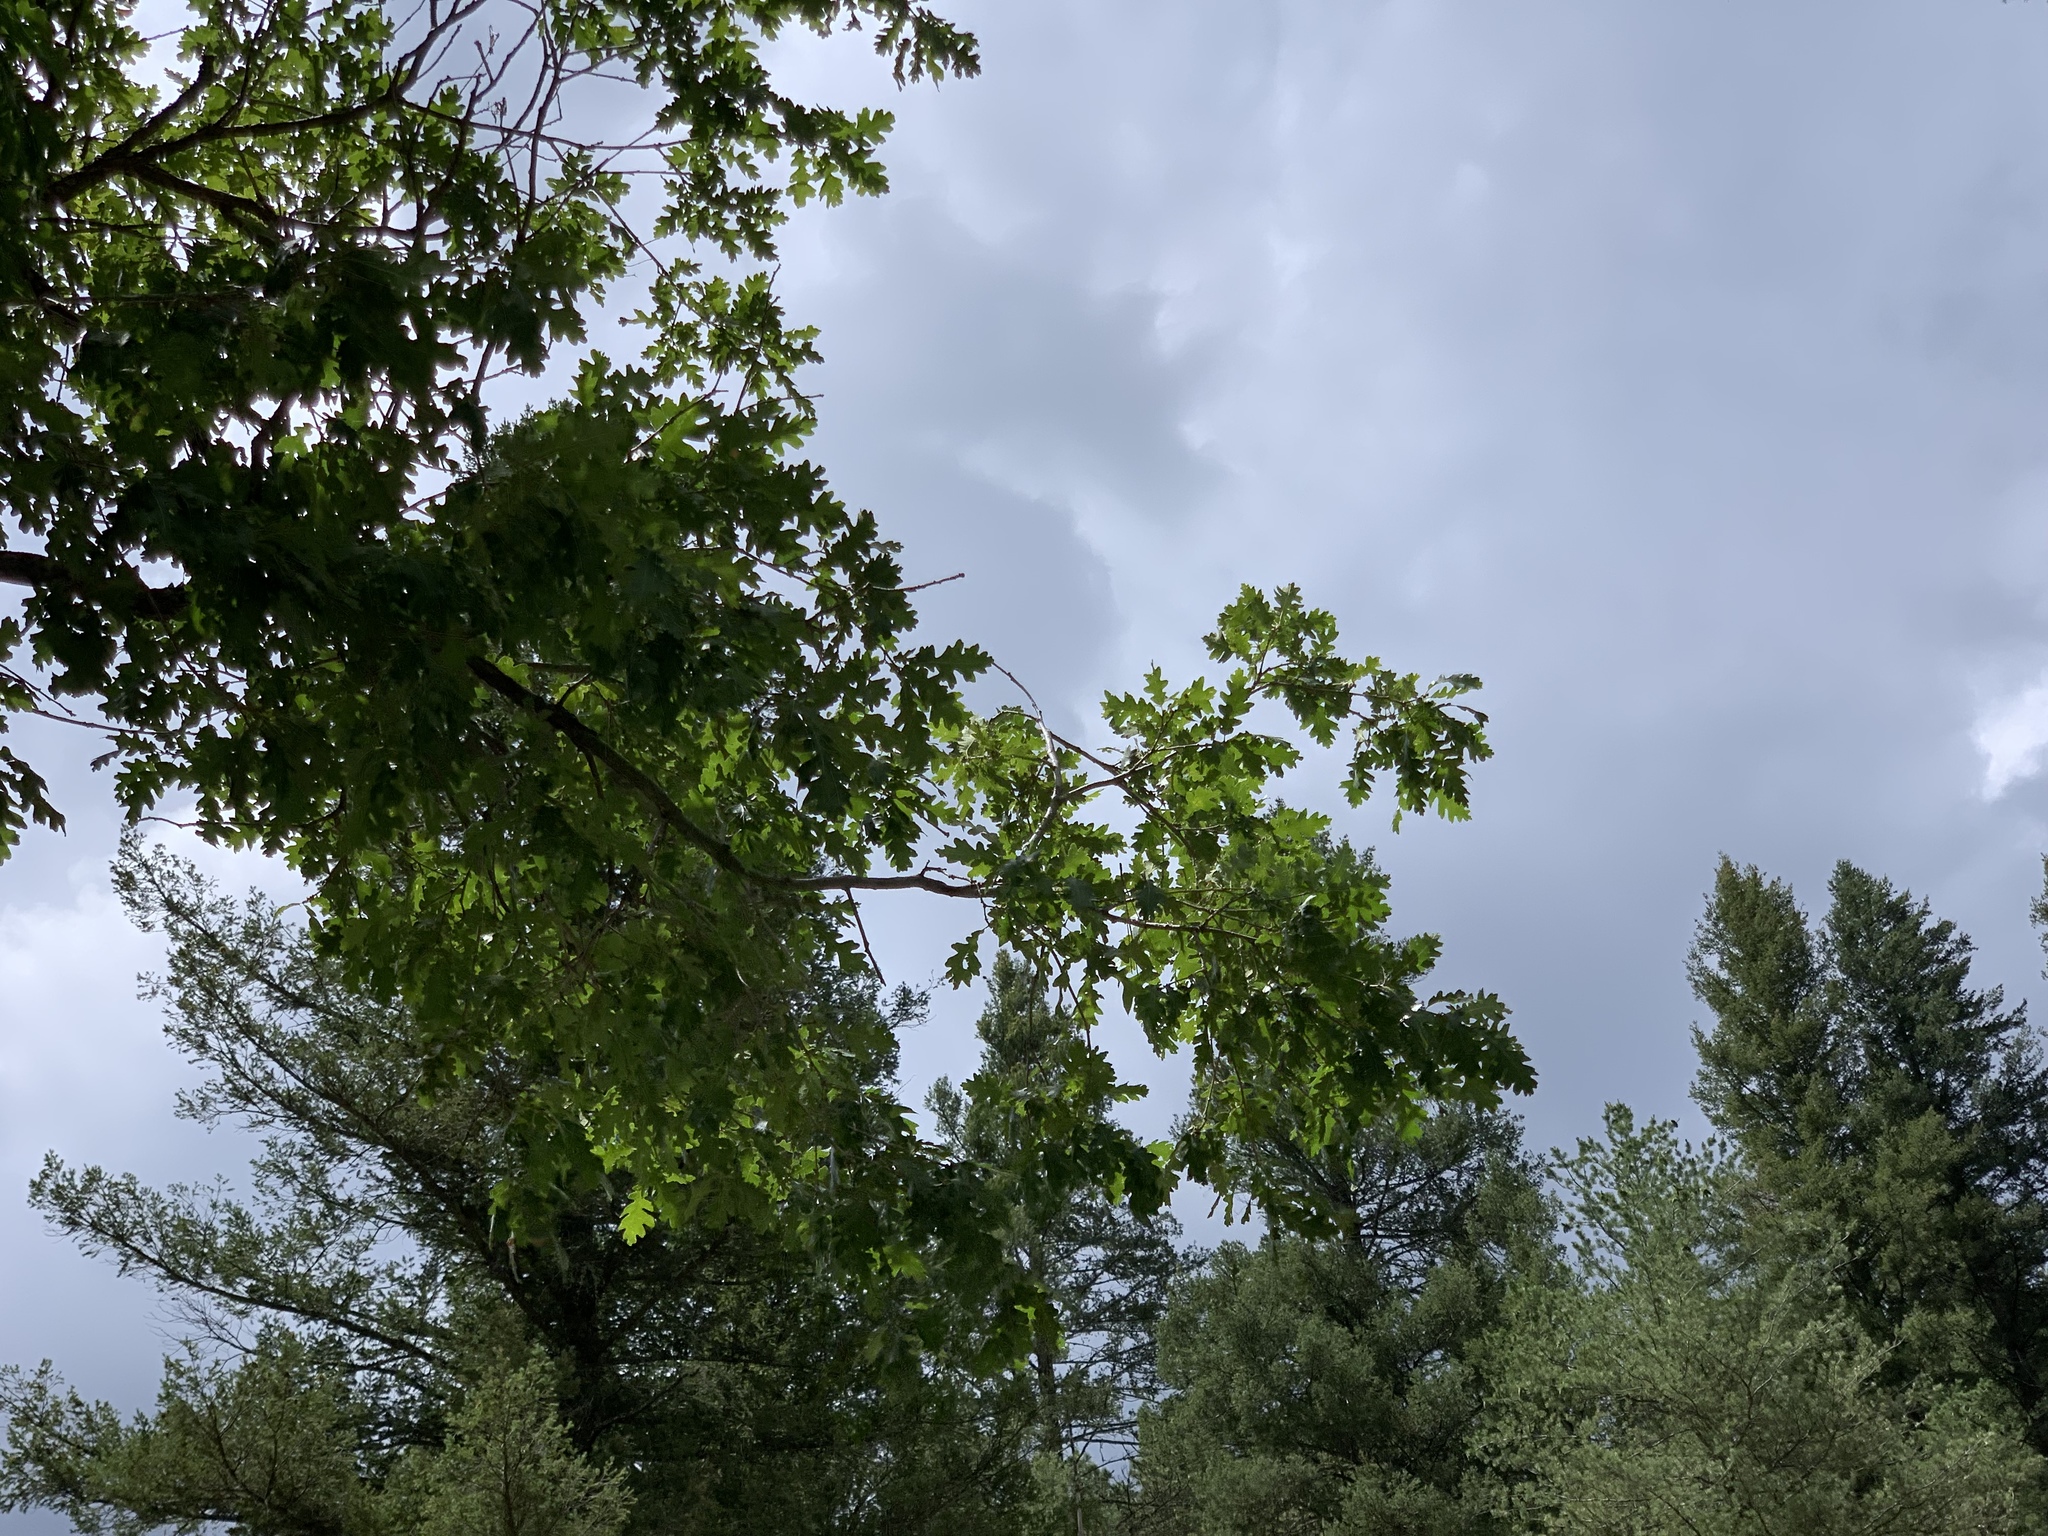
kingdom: Plantae
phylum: Tracheophyta
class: Magnoliopsida
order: Fagales
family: Fagaceae
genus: Quercus
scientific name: Quercus gambelii
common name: Gambel oak
